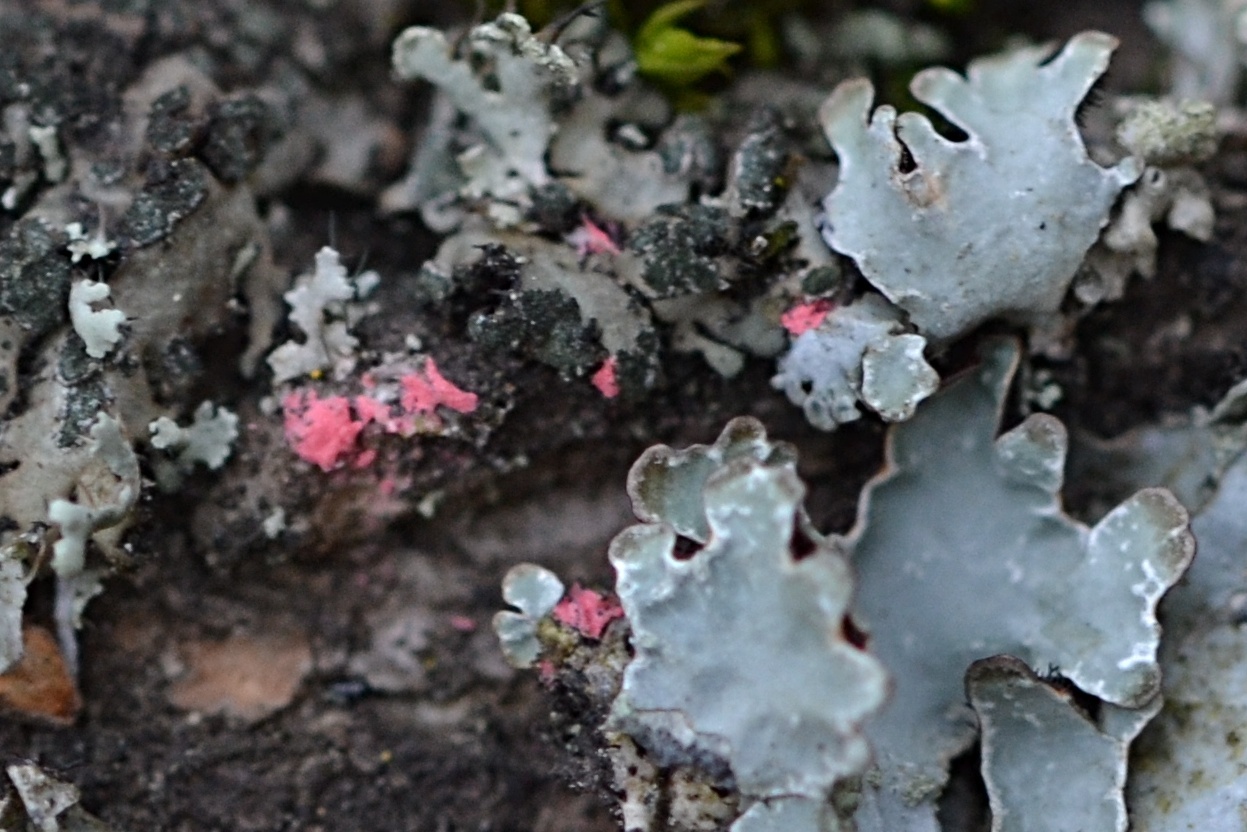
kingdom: Fungi
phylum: Ascomycota
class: Sordariomycetes
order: Hypocreales
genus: Illosporiopsis
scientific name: Illosporiopsis christiansenii
